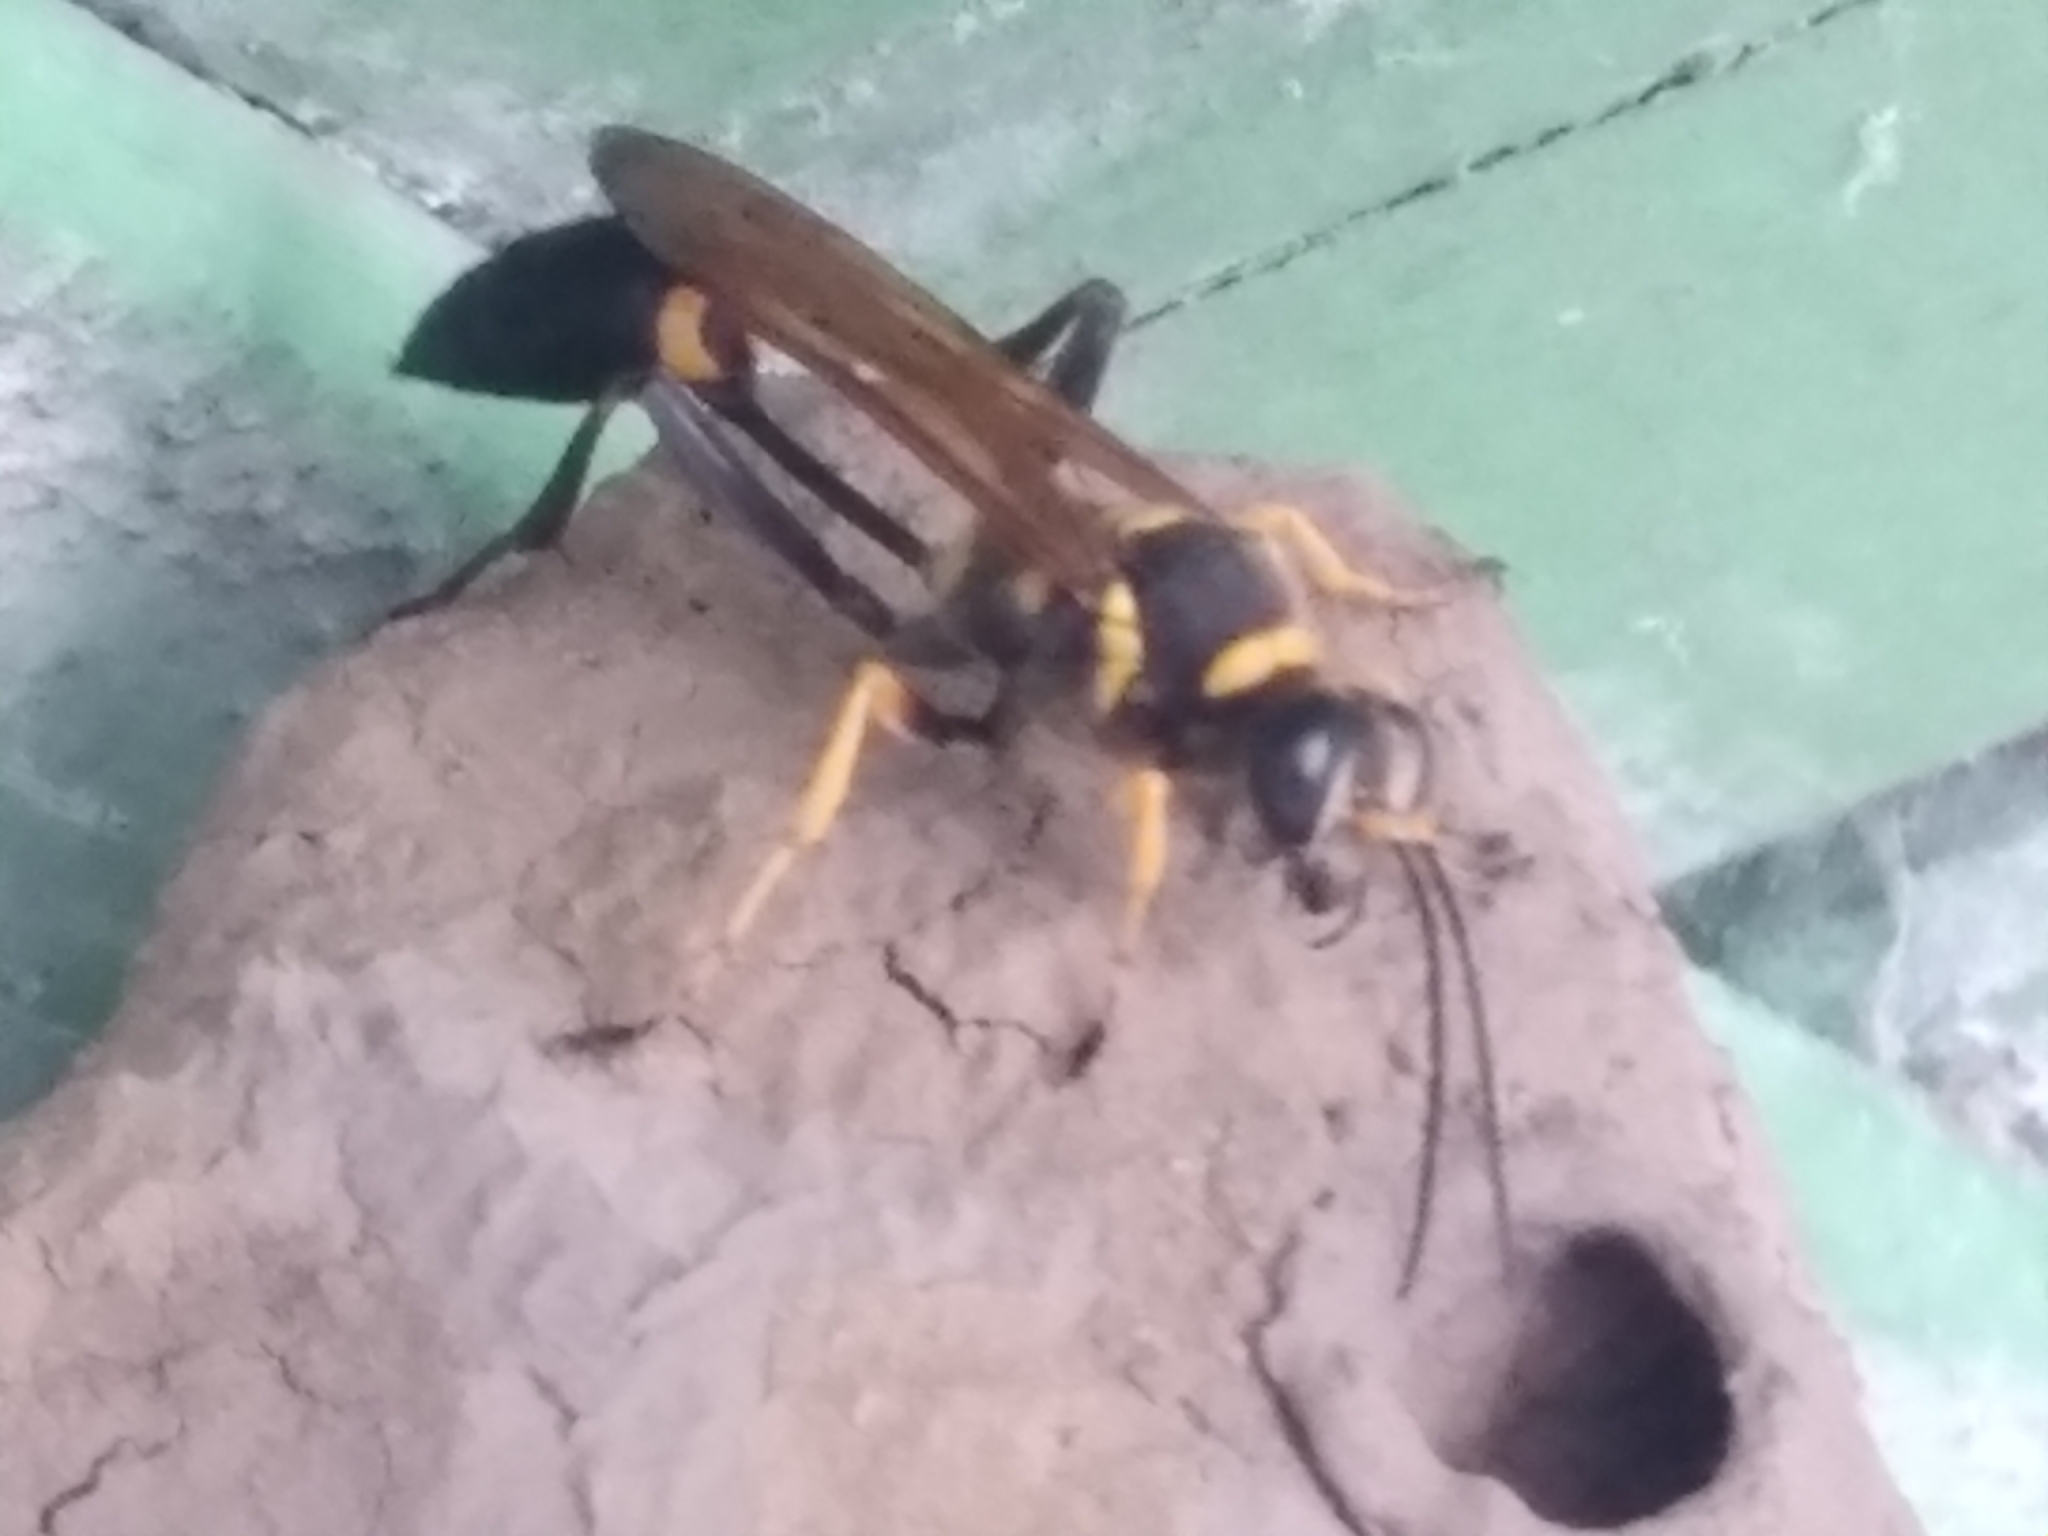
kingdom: Animalia
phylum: Arthropoda
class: Insecta
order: Hymenoptera
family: Sphecidae
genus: Sceliphron
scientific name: Sceliphron asiaticum
